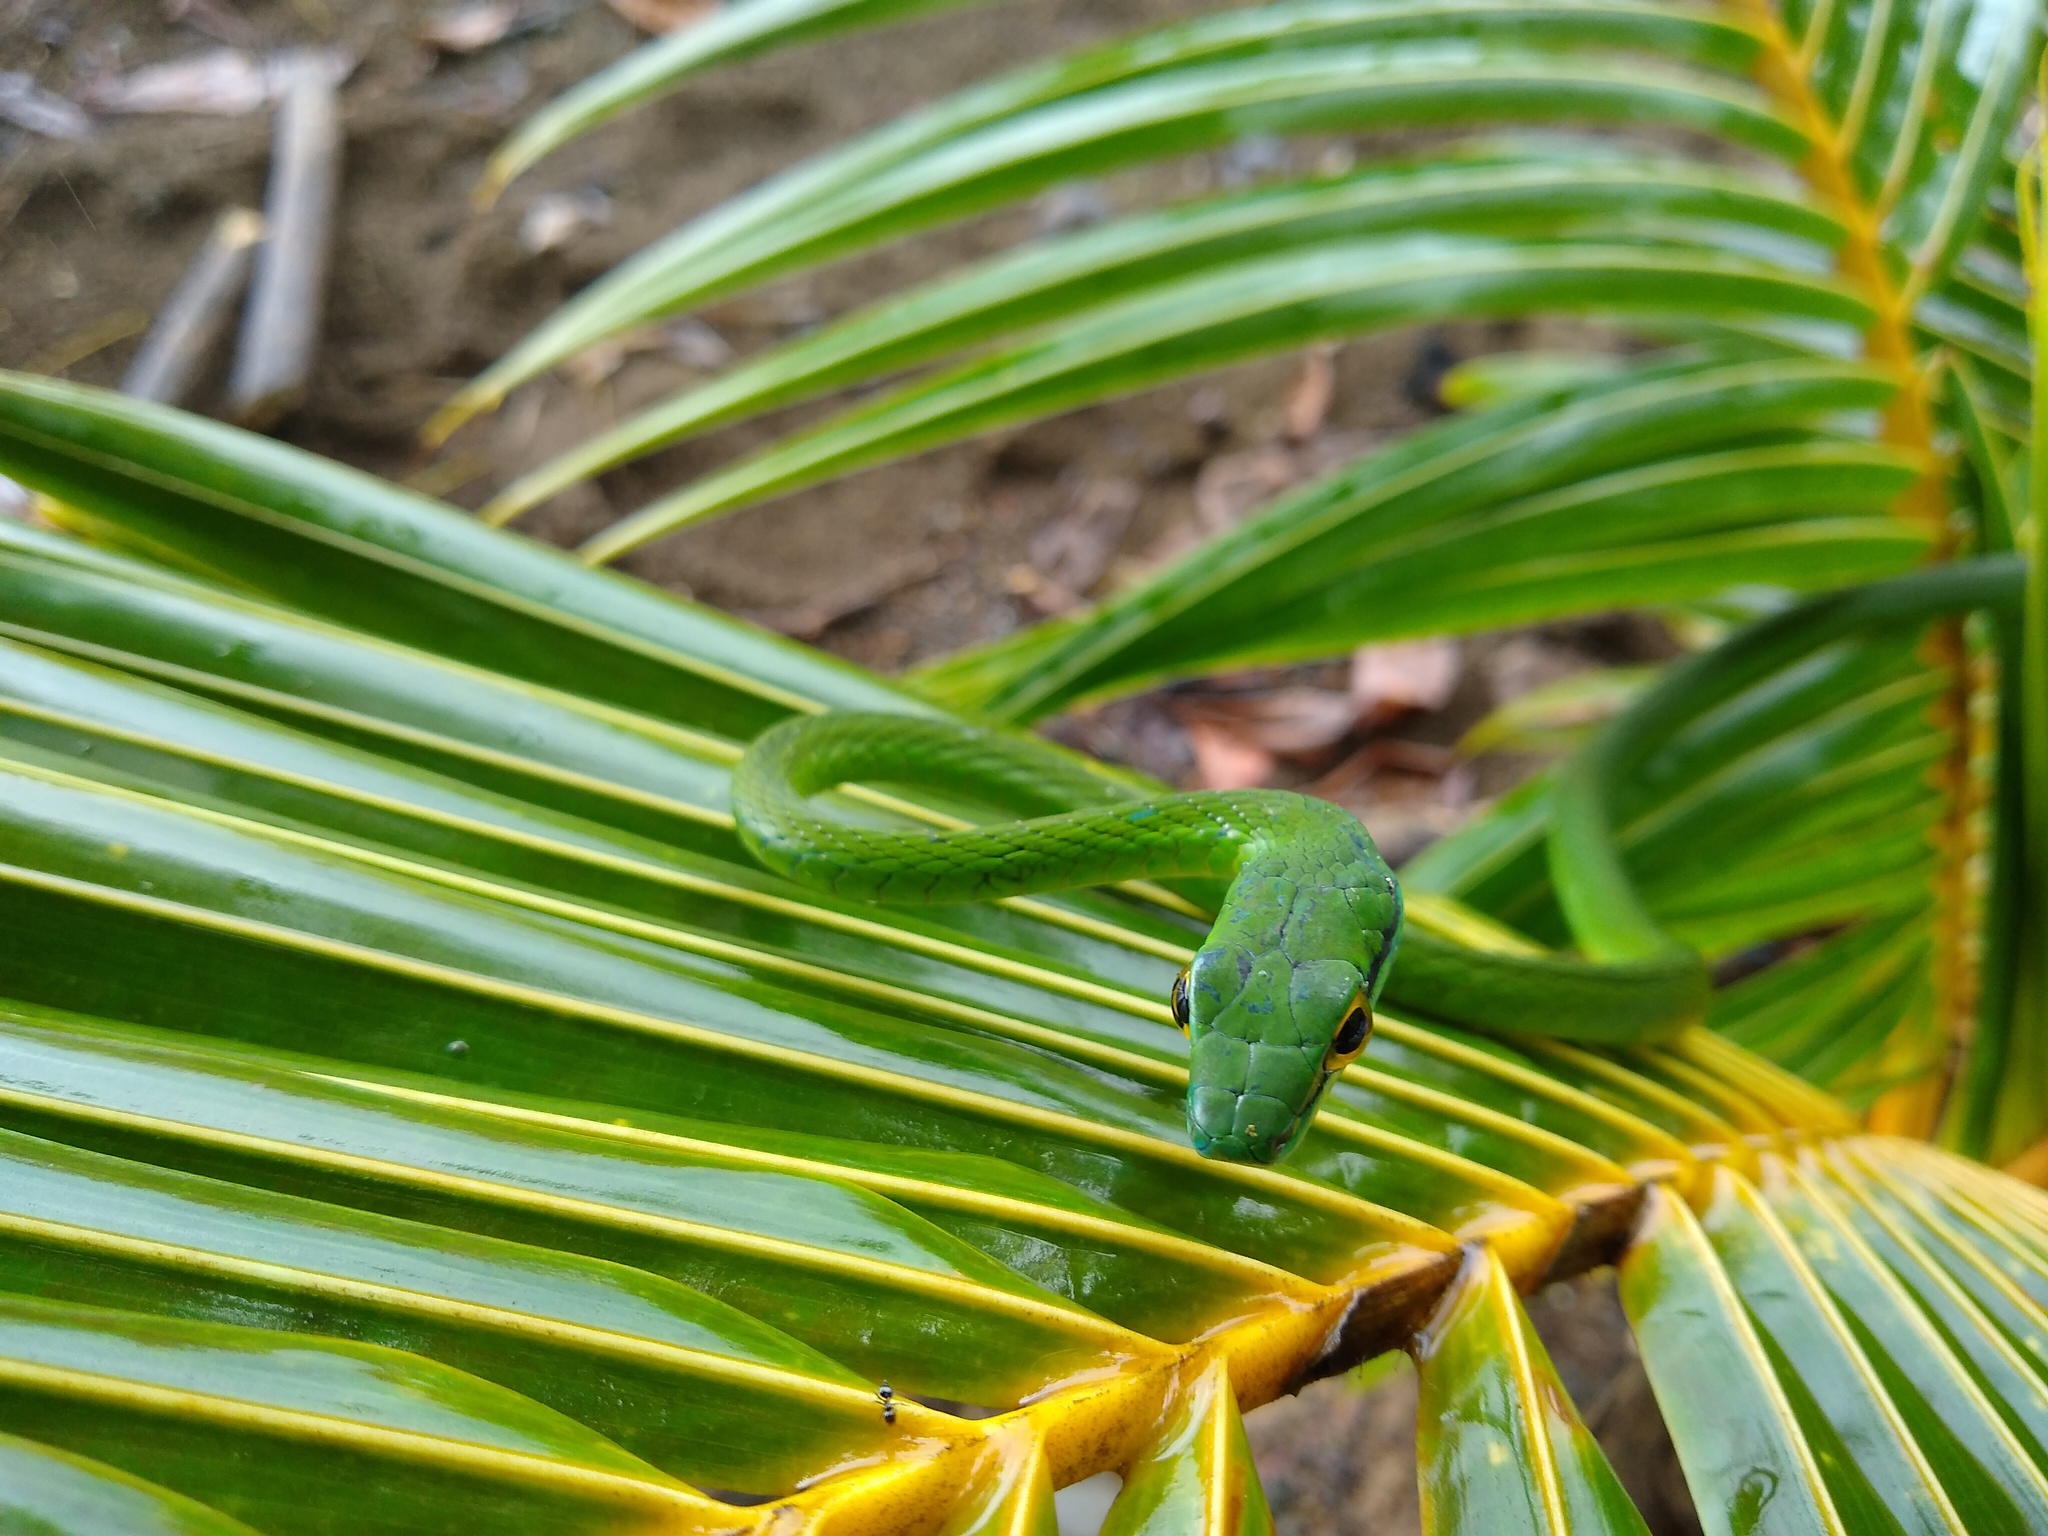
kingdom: Animalia
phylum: Chordata
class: Squamata
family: Colubridae
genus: Leptophis
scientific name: Leptophis ahaetulla
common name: Parrot snake
